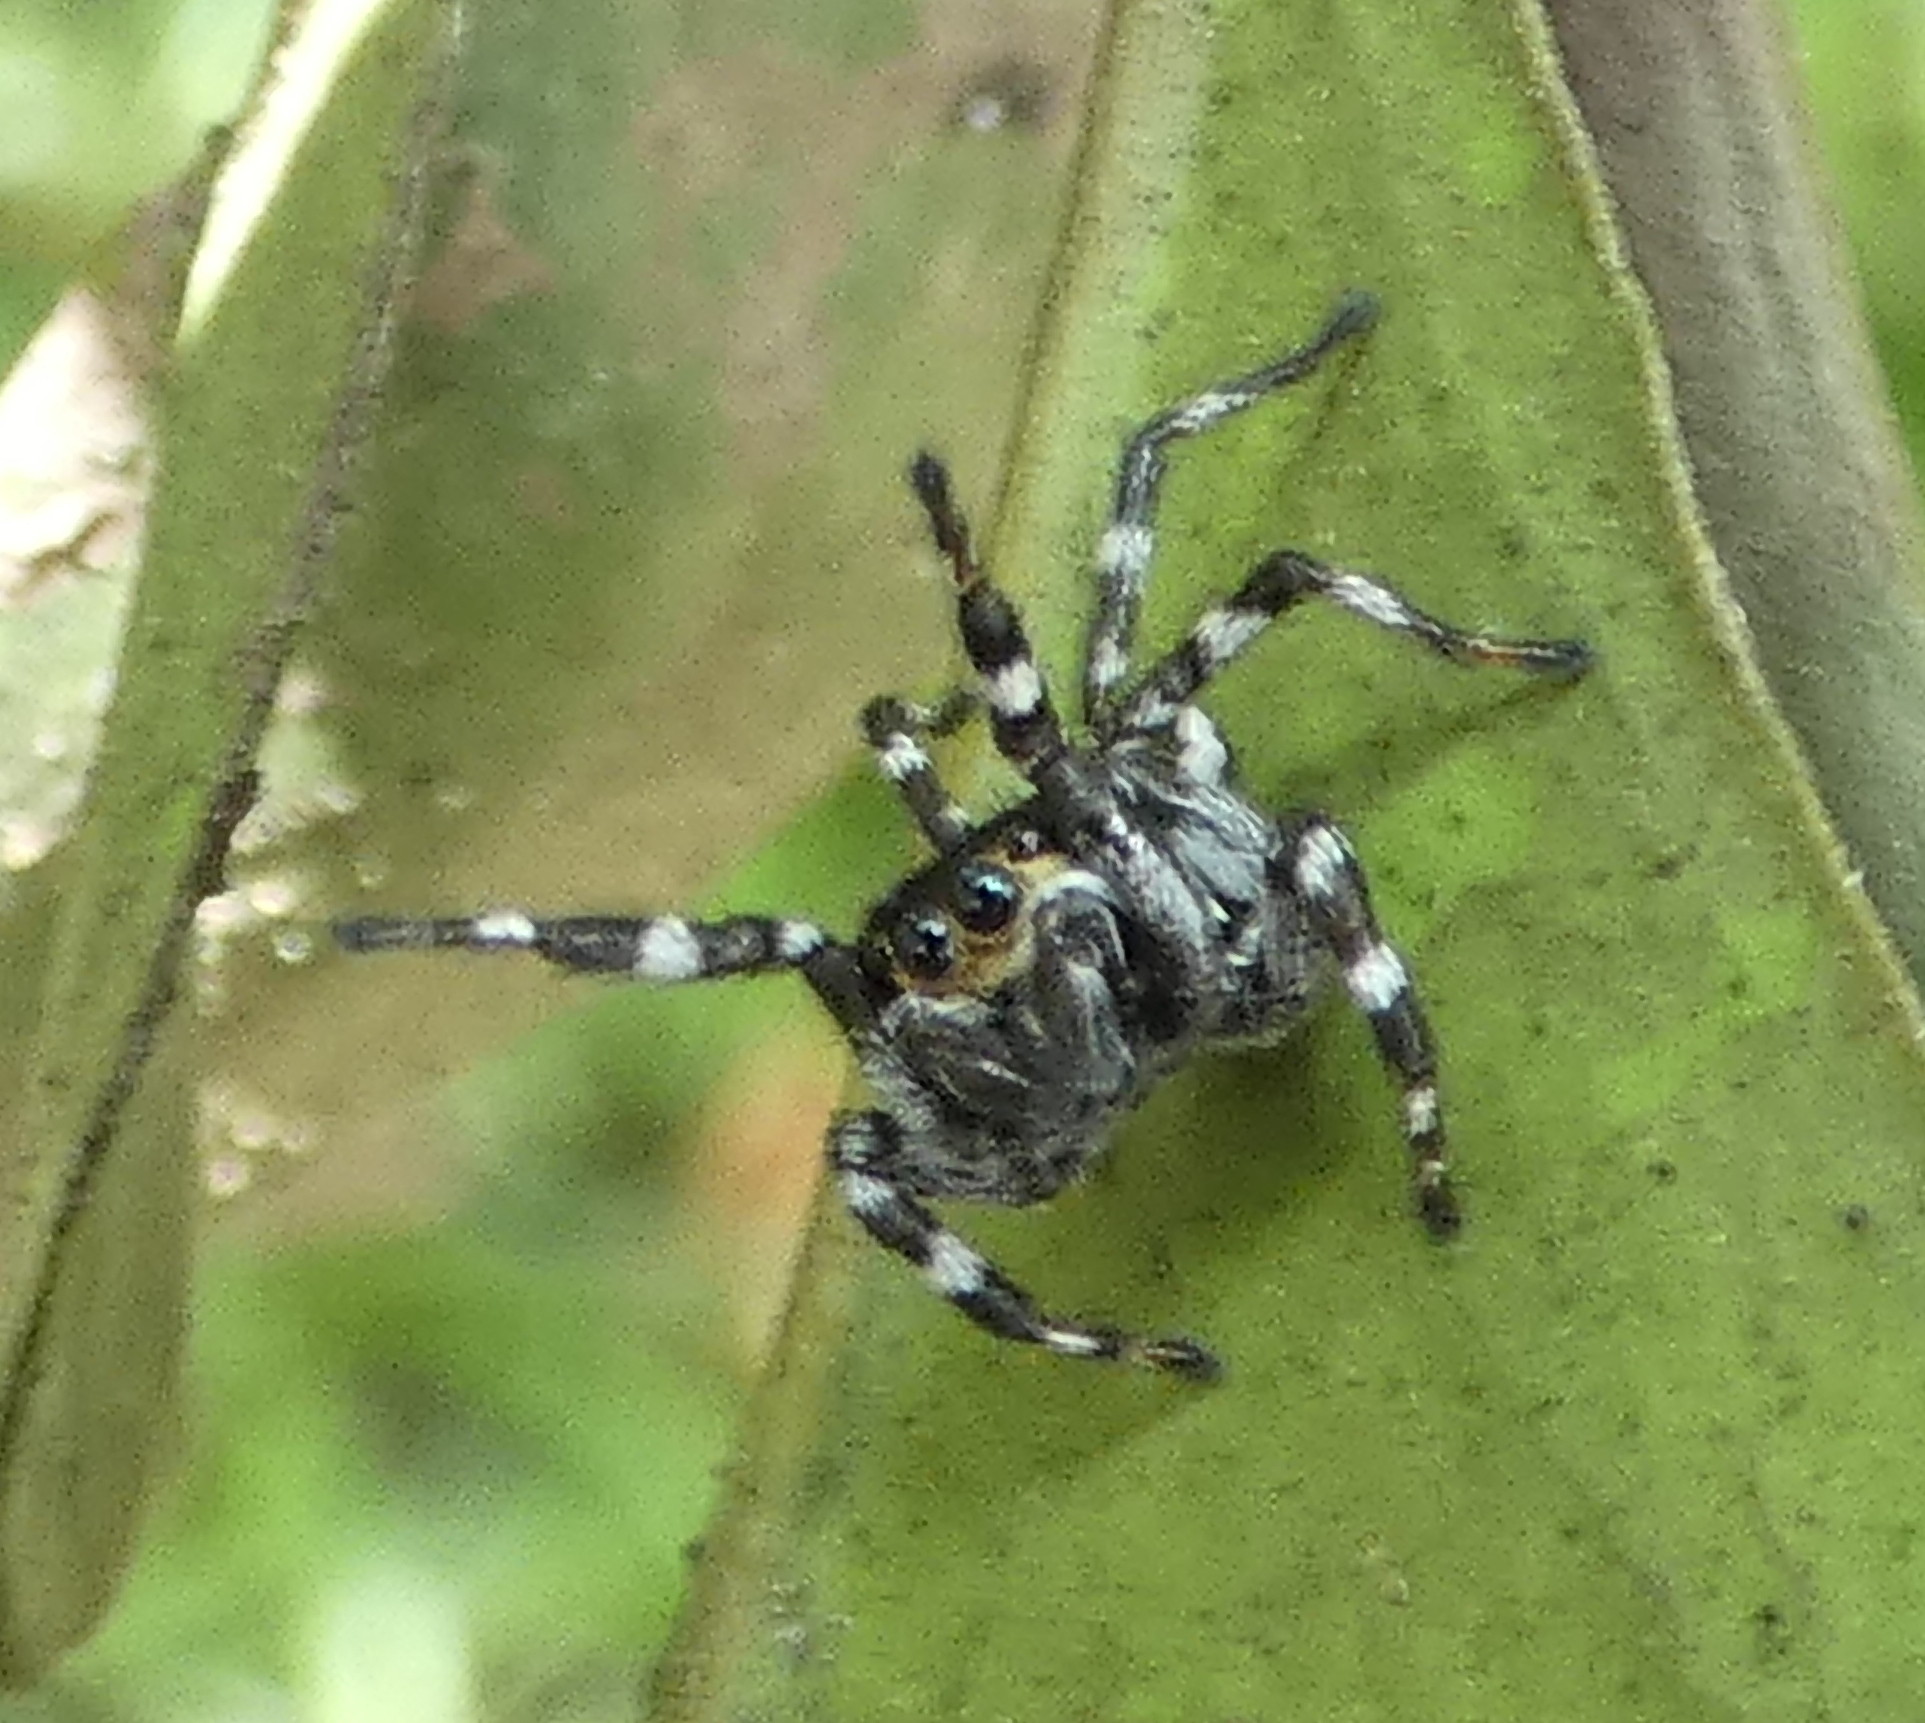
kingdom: Animalia
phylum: Arthropoda
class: Arachnida
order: Araneae
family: Salticidae
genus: Phiale
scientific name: Phiale tristis
